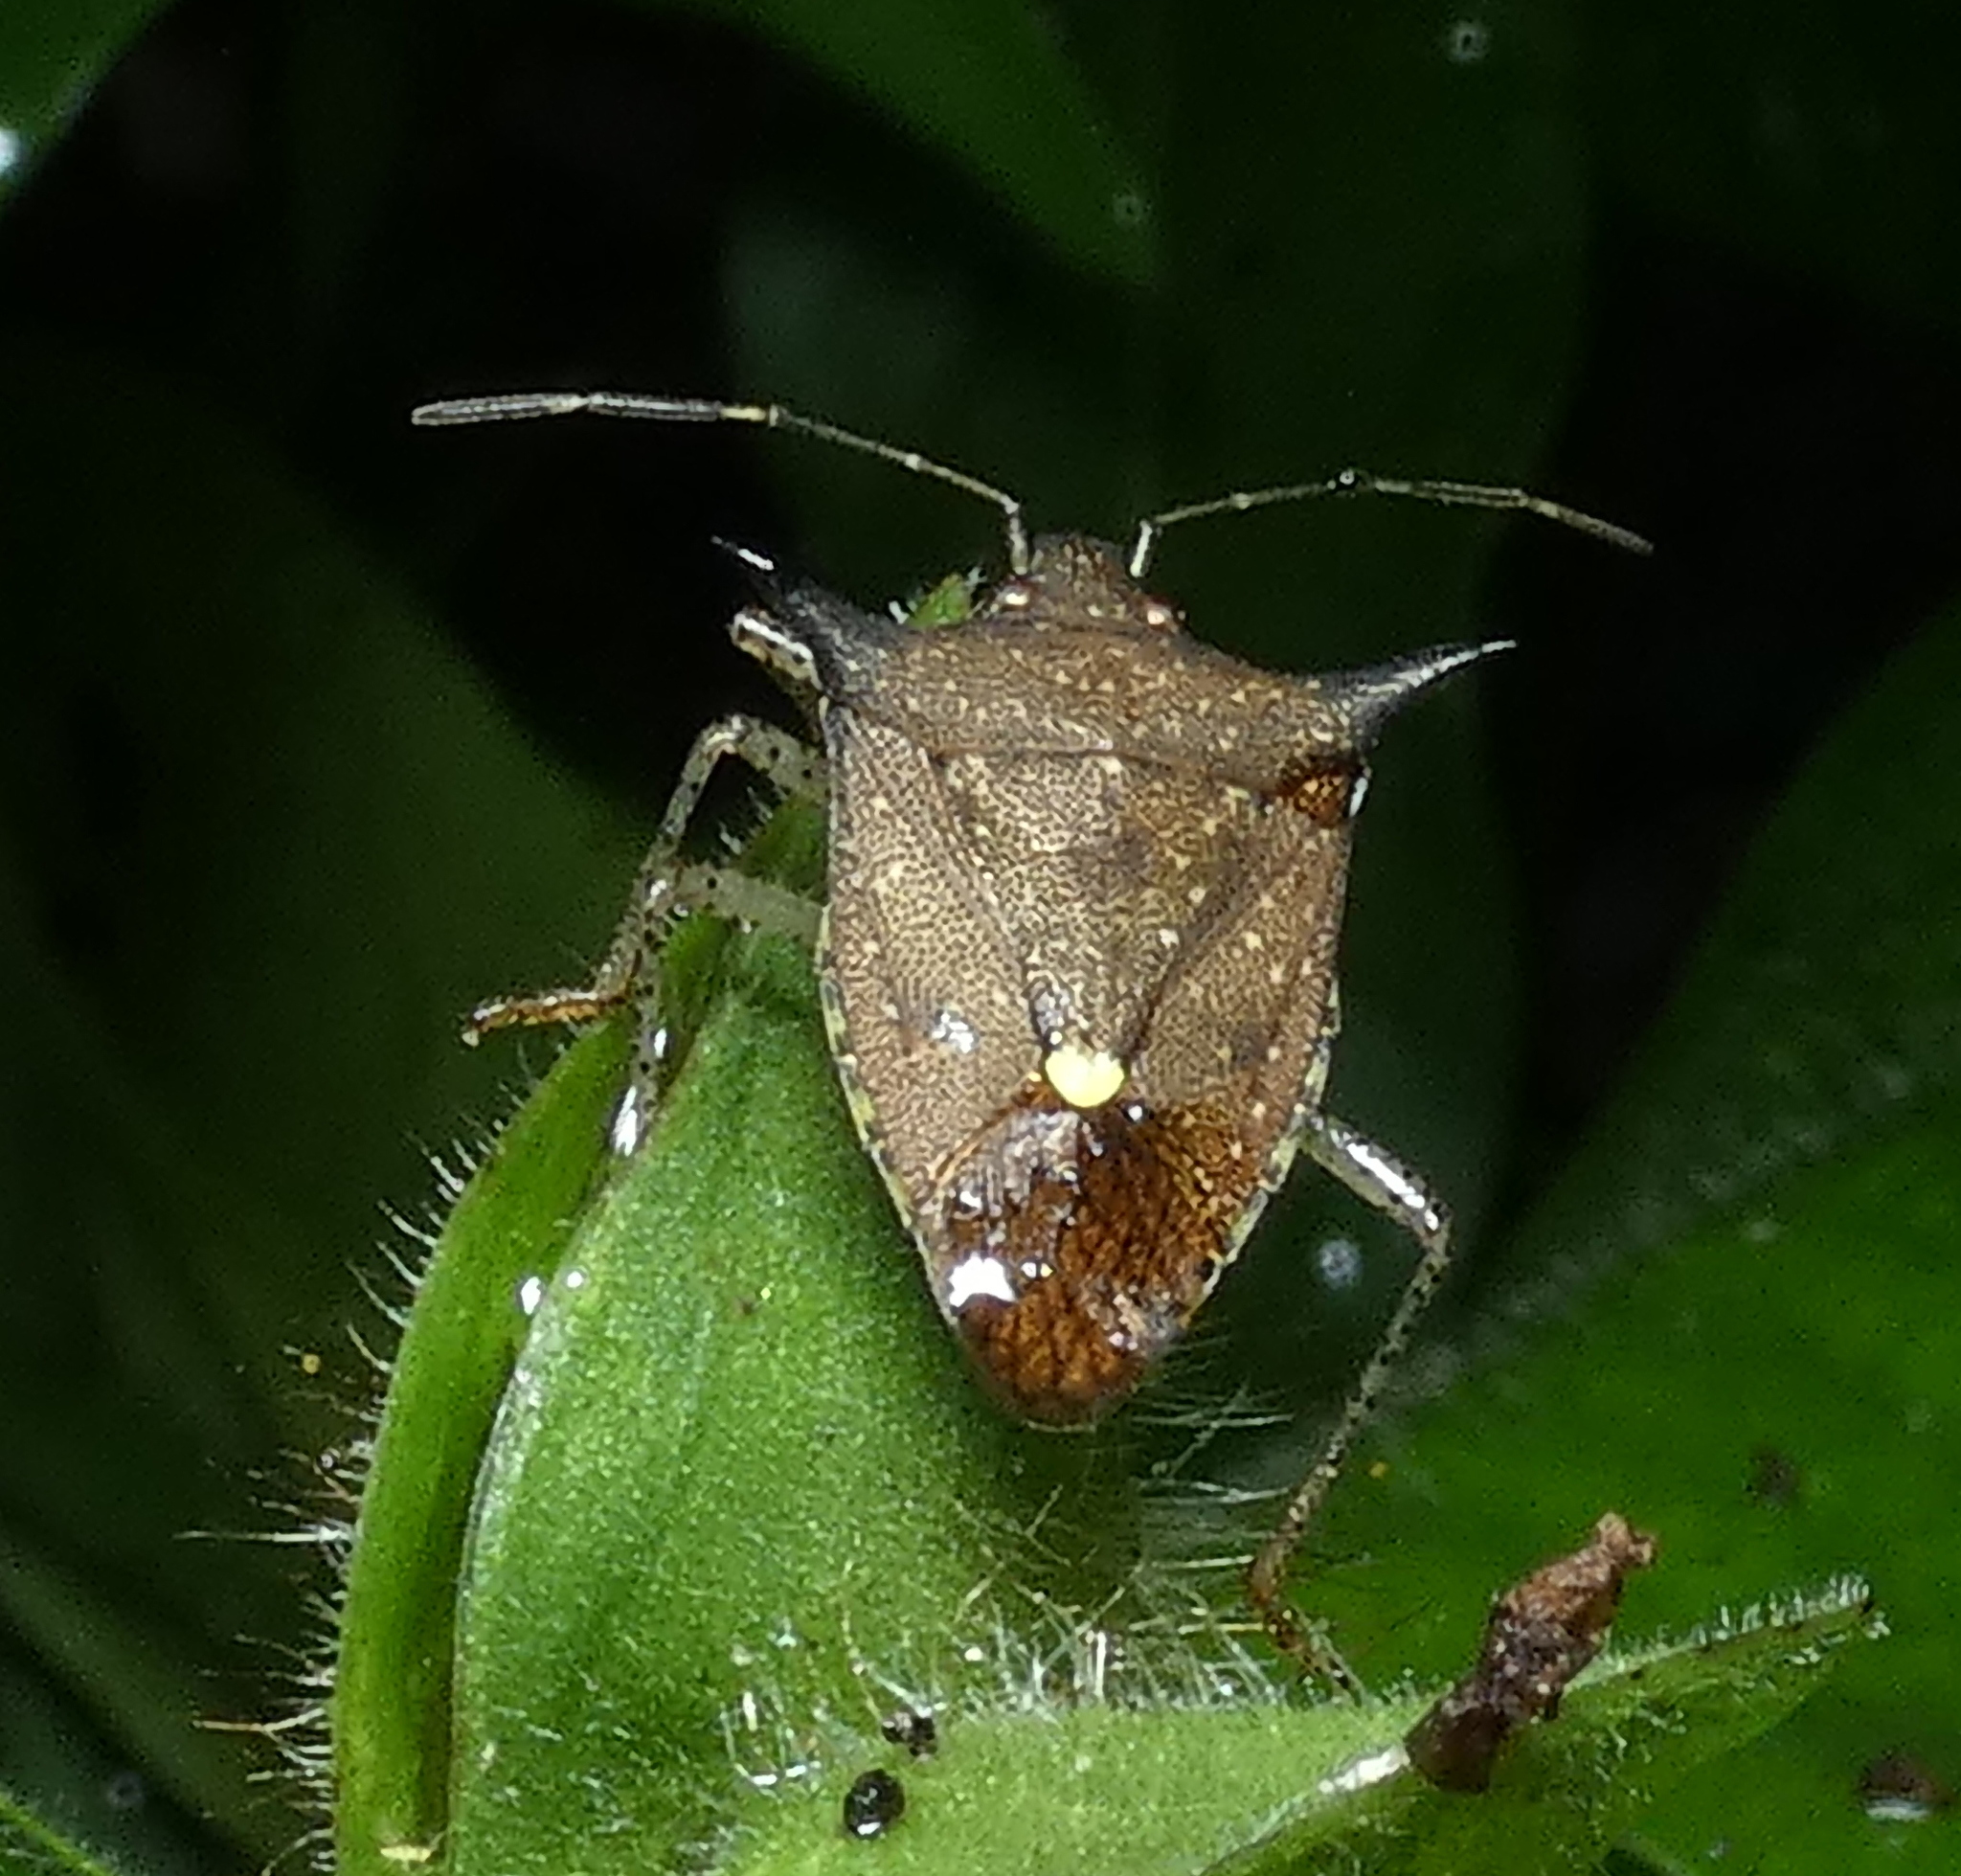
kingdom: Animalia
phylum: Arthropoda
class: Insecta
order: Hemiptera
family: Pentatomidae
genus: Proxys
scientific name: Proxys albopunctulatus
